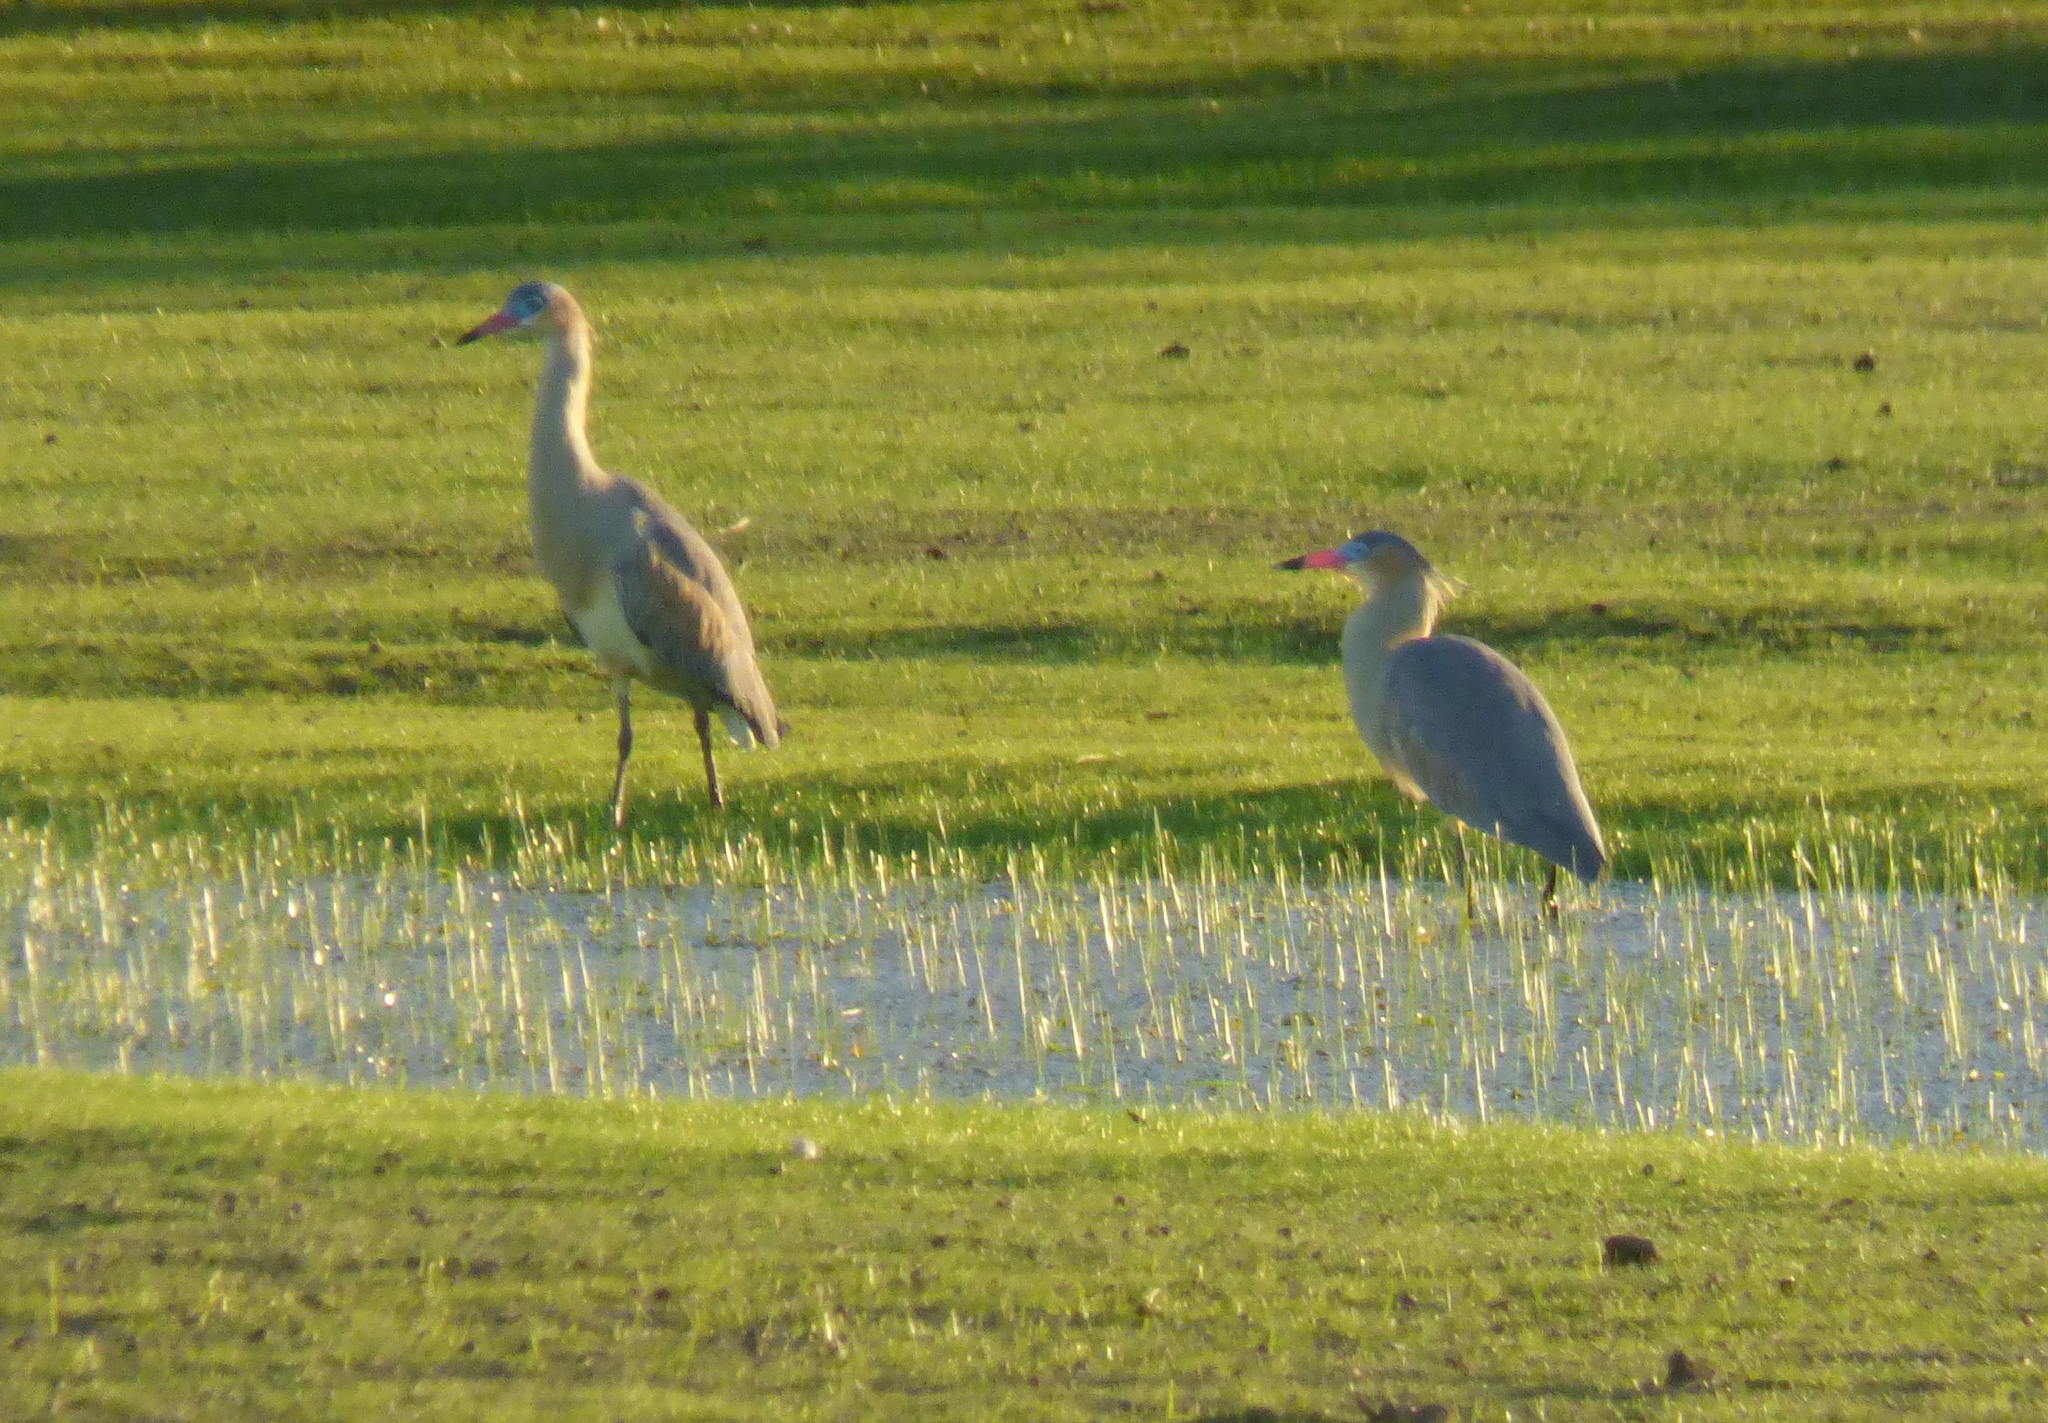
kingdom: Animalia
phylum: Chordata
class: Aves
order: Pelecaniformes
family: Ardeidae
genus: Syrigma
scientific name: Syrigma sibilatrix
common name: Whistling heron
